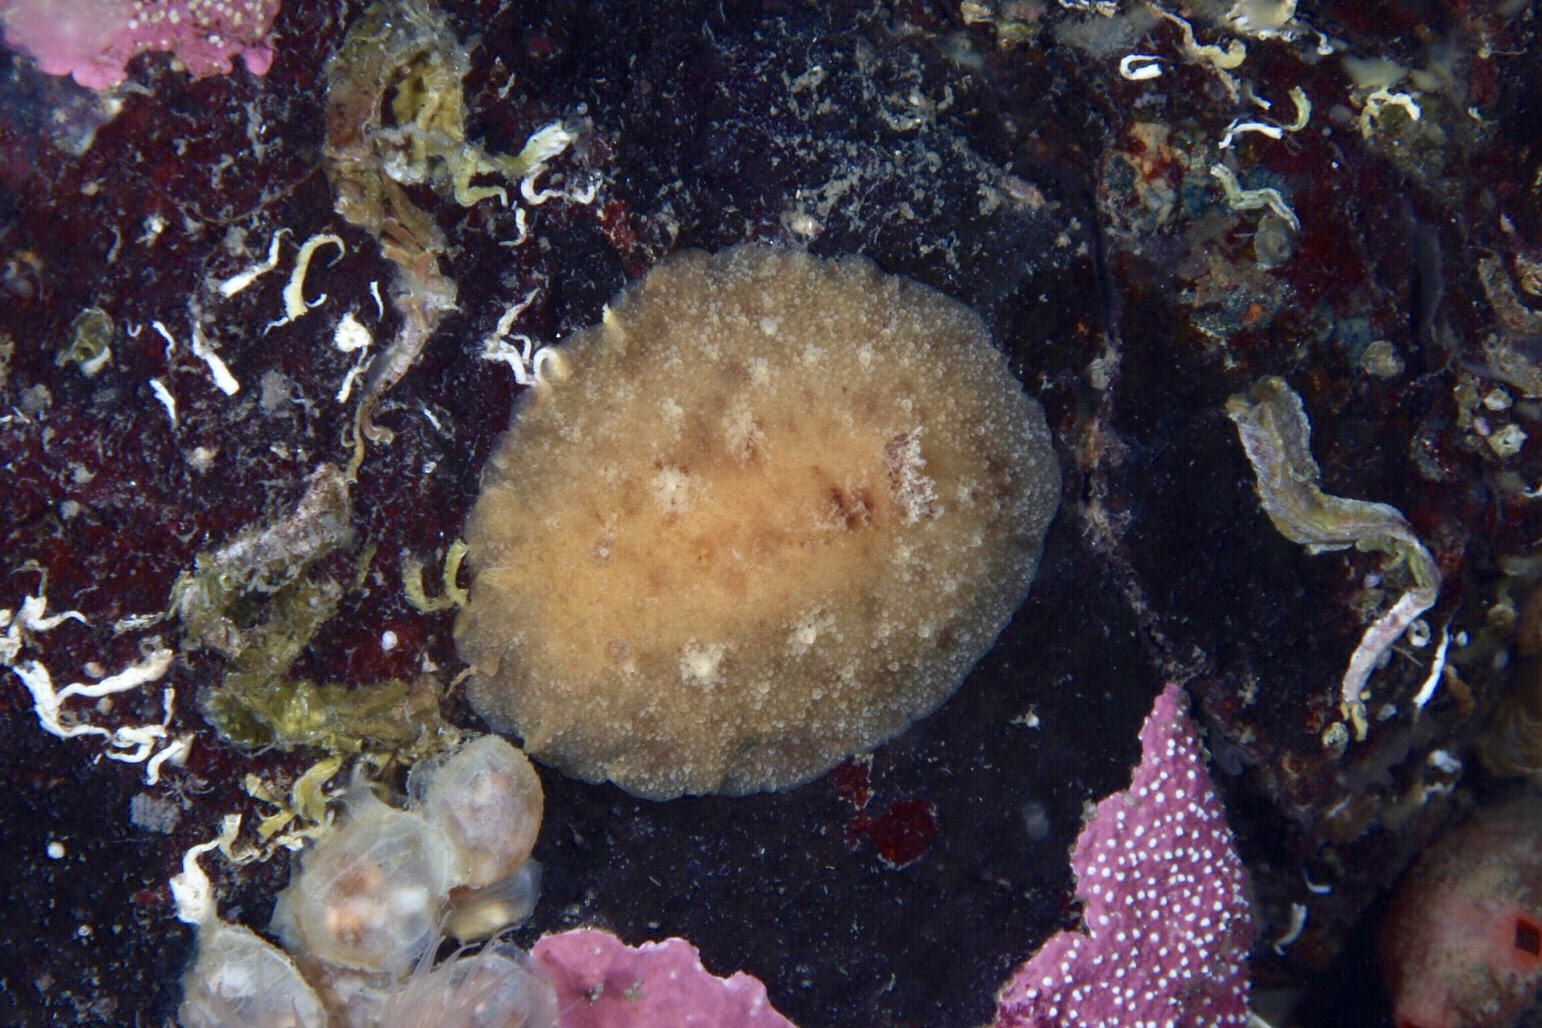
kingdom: Animalia
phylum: Mollusca
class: Gastropoda
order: Nudibranchia
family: Discodorididae
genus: Geitodoris
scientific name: Geitodoris planata
